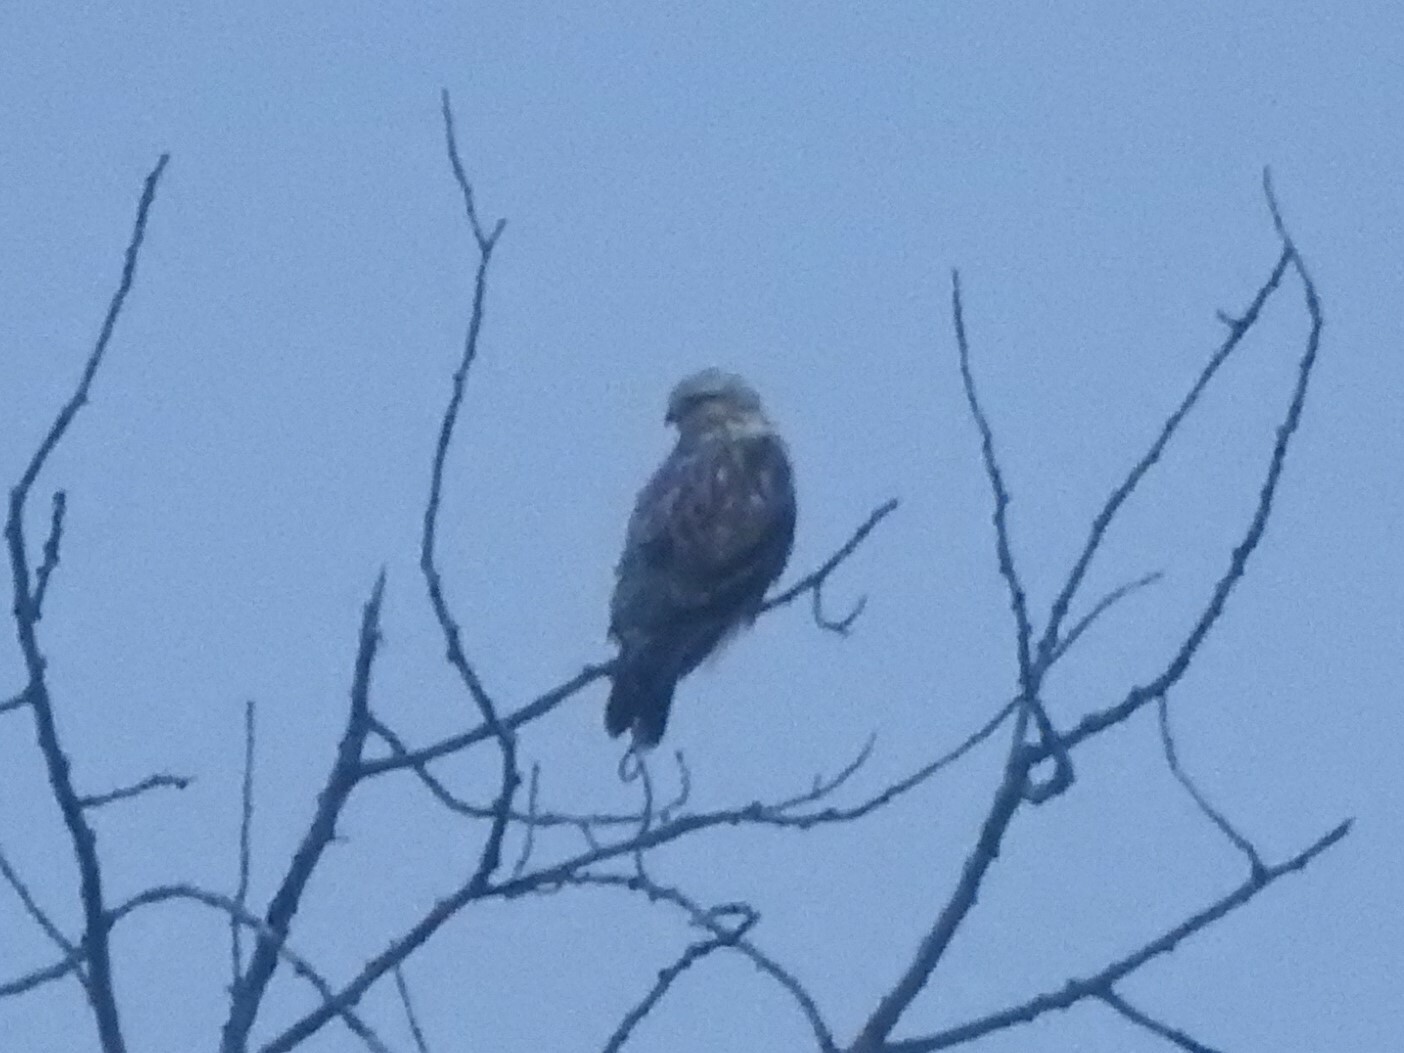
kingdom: Animalia
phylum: Chordata
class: Aves
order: Accipitriformes
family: Accipitridae
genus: Buteo
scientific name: Buteo lagopus
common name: Rough-legged buzzard
